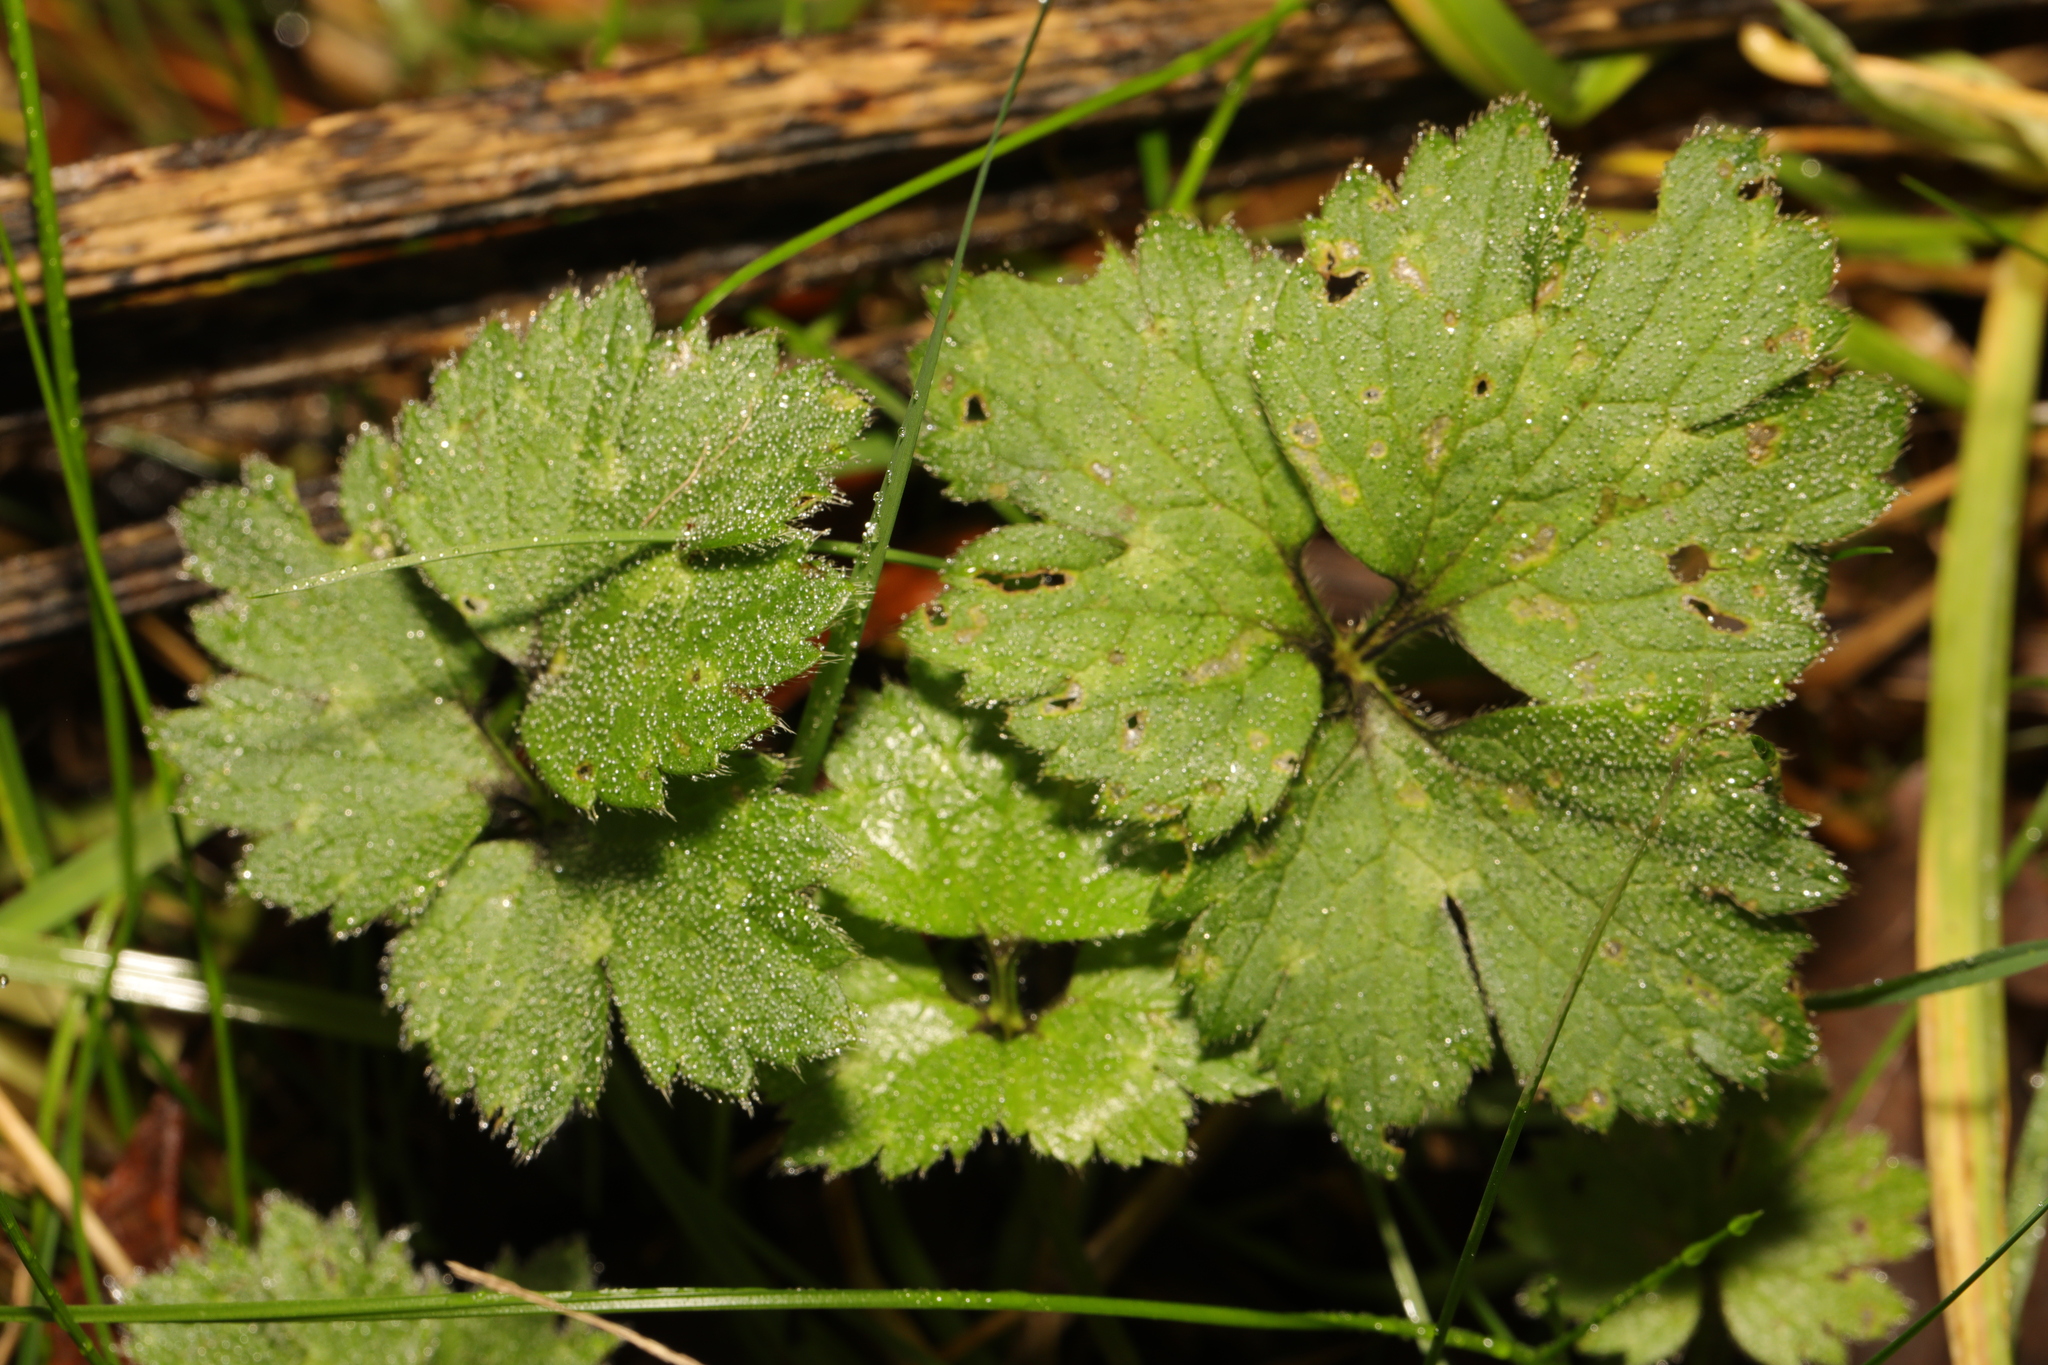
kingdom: Plantae
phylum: Tracheophyta
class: Magnoliopsida
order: Ranunculales
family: Ranunculaceae
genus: Ranunculus
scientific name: Ranunculus repens
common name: Creeping buttercup
